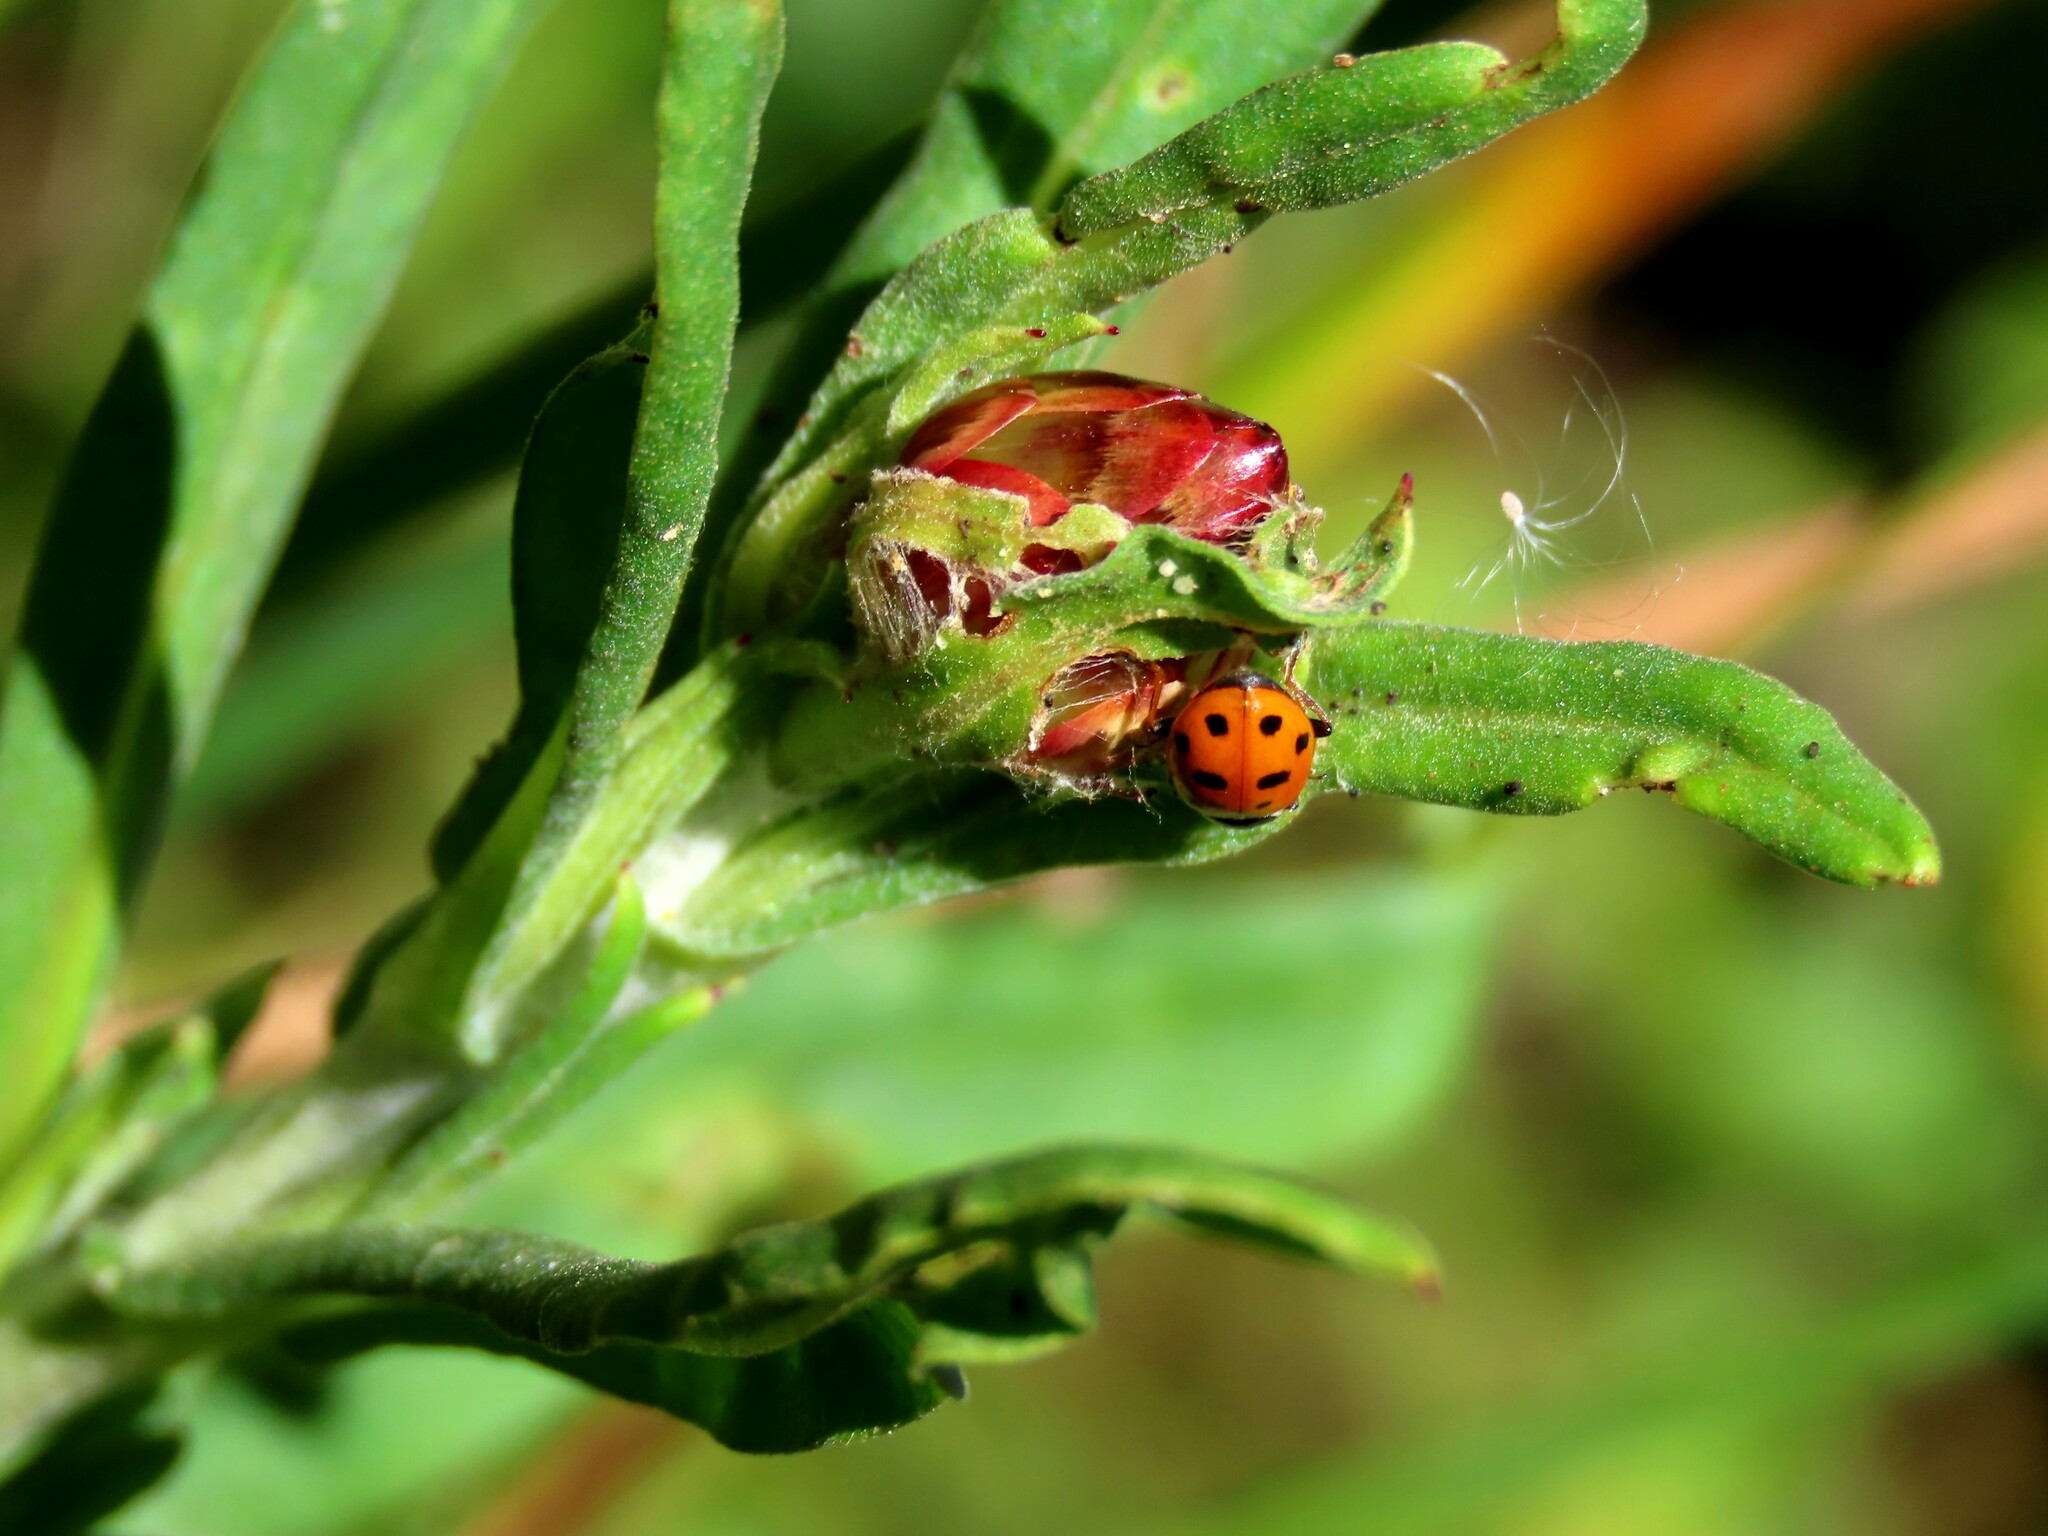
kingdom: Animalia
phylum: Arthropoda
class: Insecta
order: Coleoptera
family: Coccinellidae
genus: Hippodamia
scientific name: Hippodamia variegata
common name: Ladybird beetle
